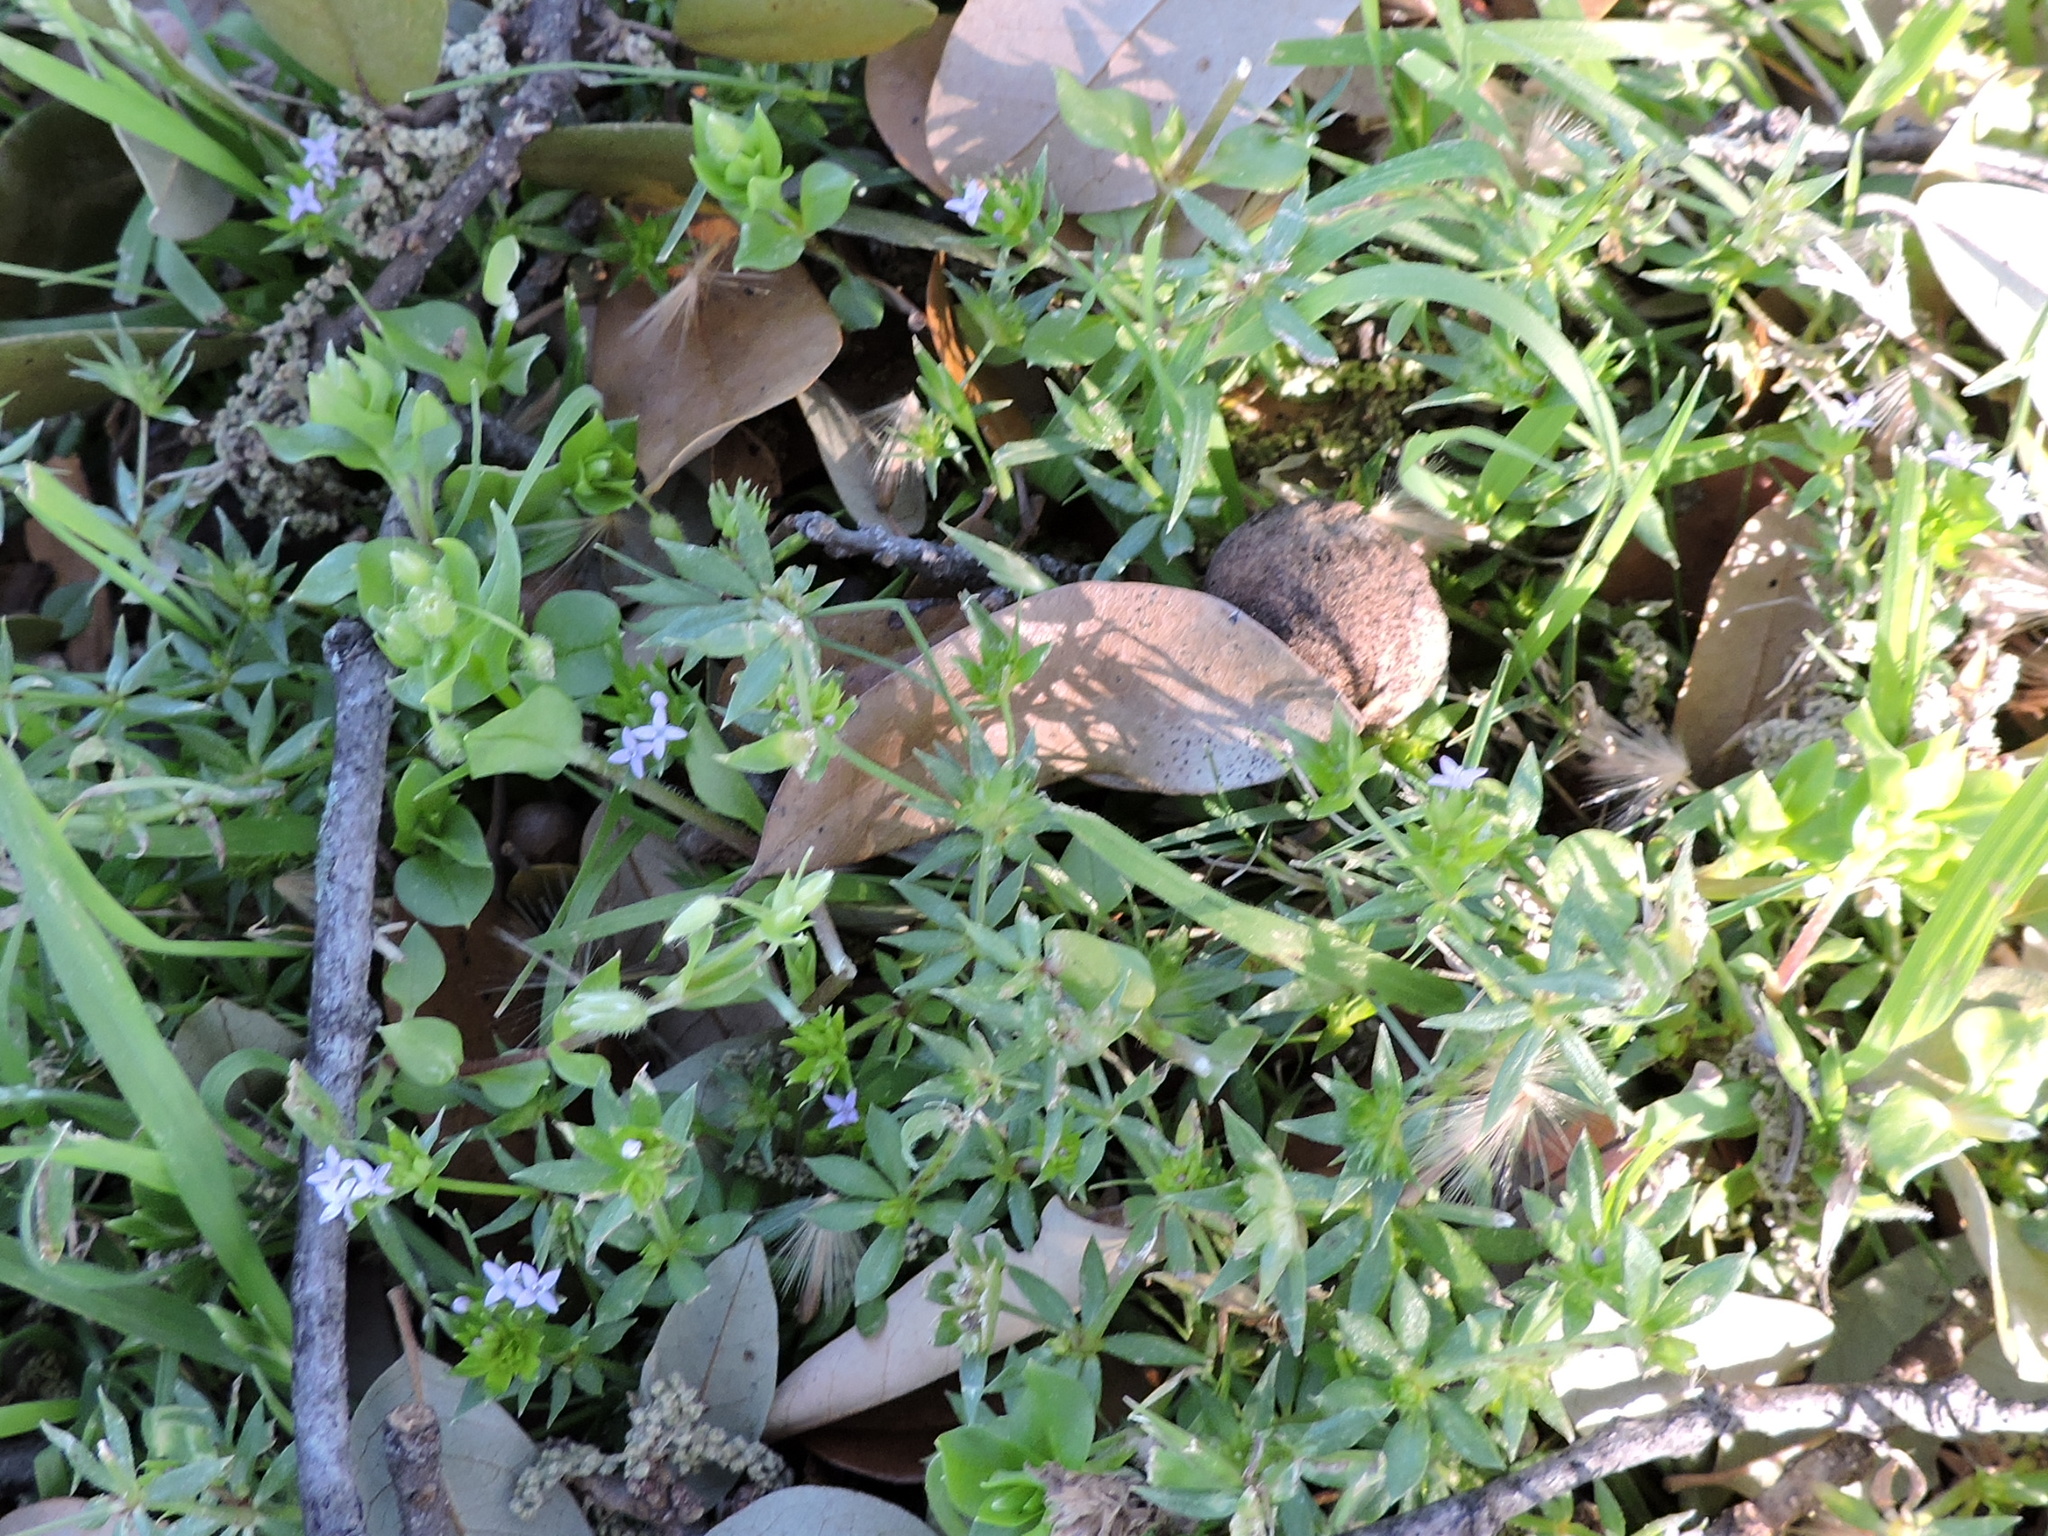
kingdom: Plantae
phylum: Tracheophyta
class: Magnoliopsida
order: Gentianales
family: Rubiaceae
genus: Sherardia
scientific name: Sherardia arvensis
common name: Field madder
